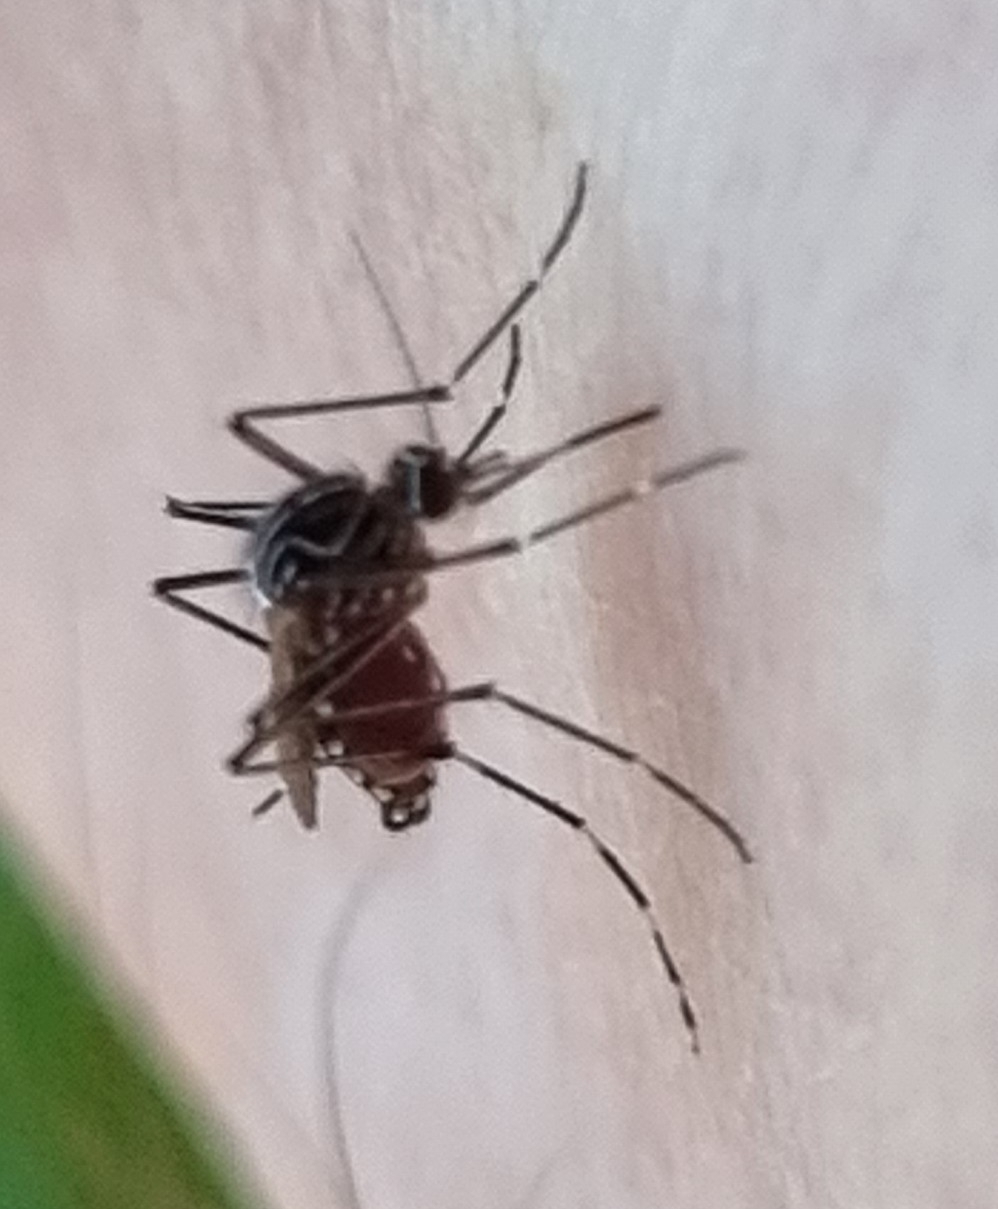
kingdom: Animalia
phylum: Arthropoda
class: Insecta
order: Diptera
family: Culicidae
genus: Aedes
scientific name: Aedes notoscriptus
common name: Australian backyard mosquito
